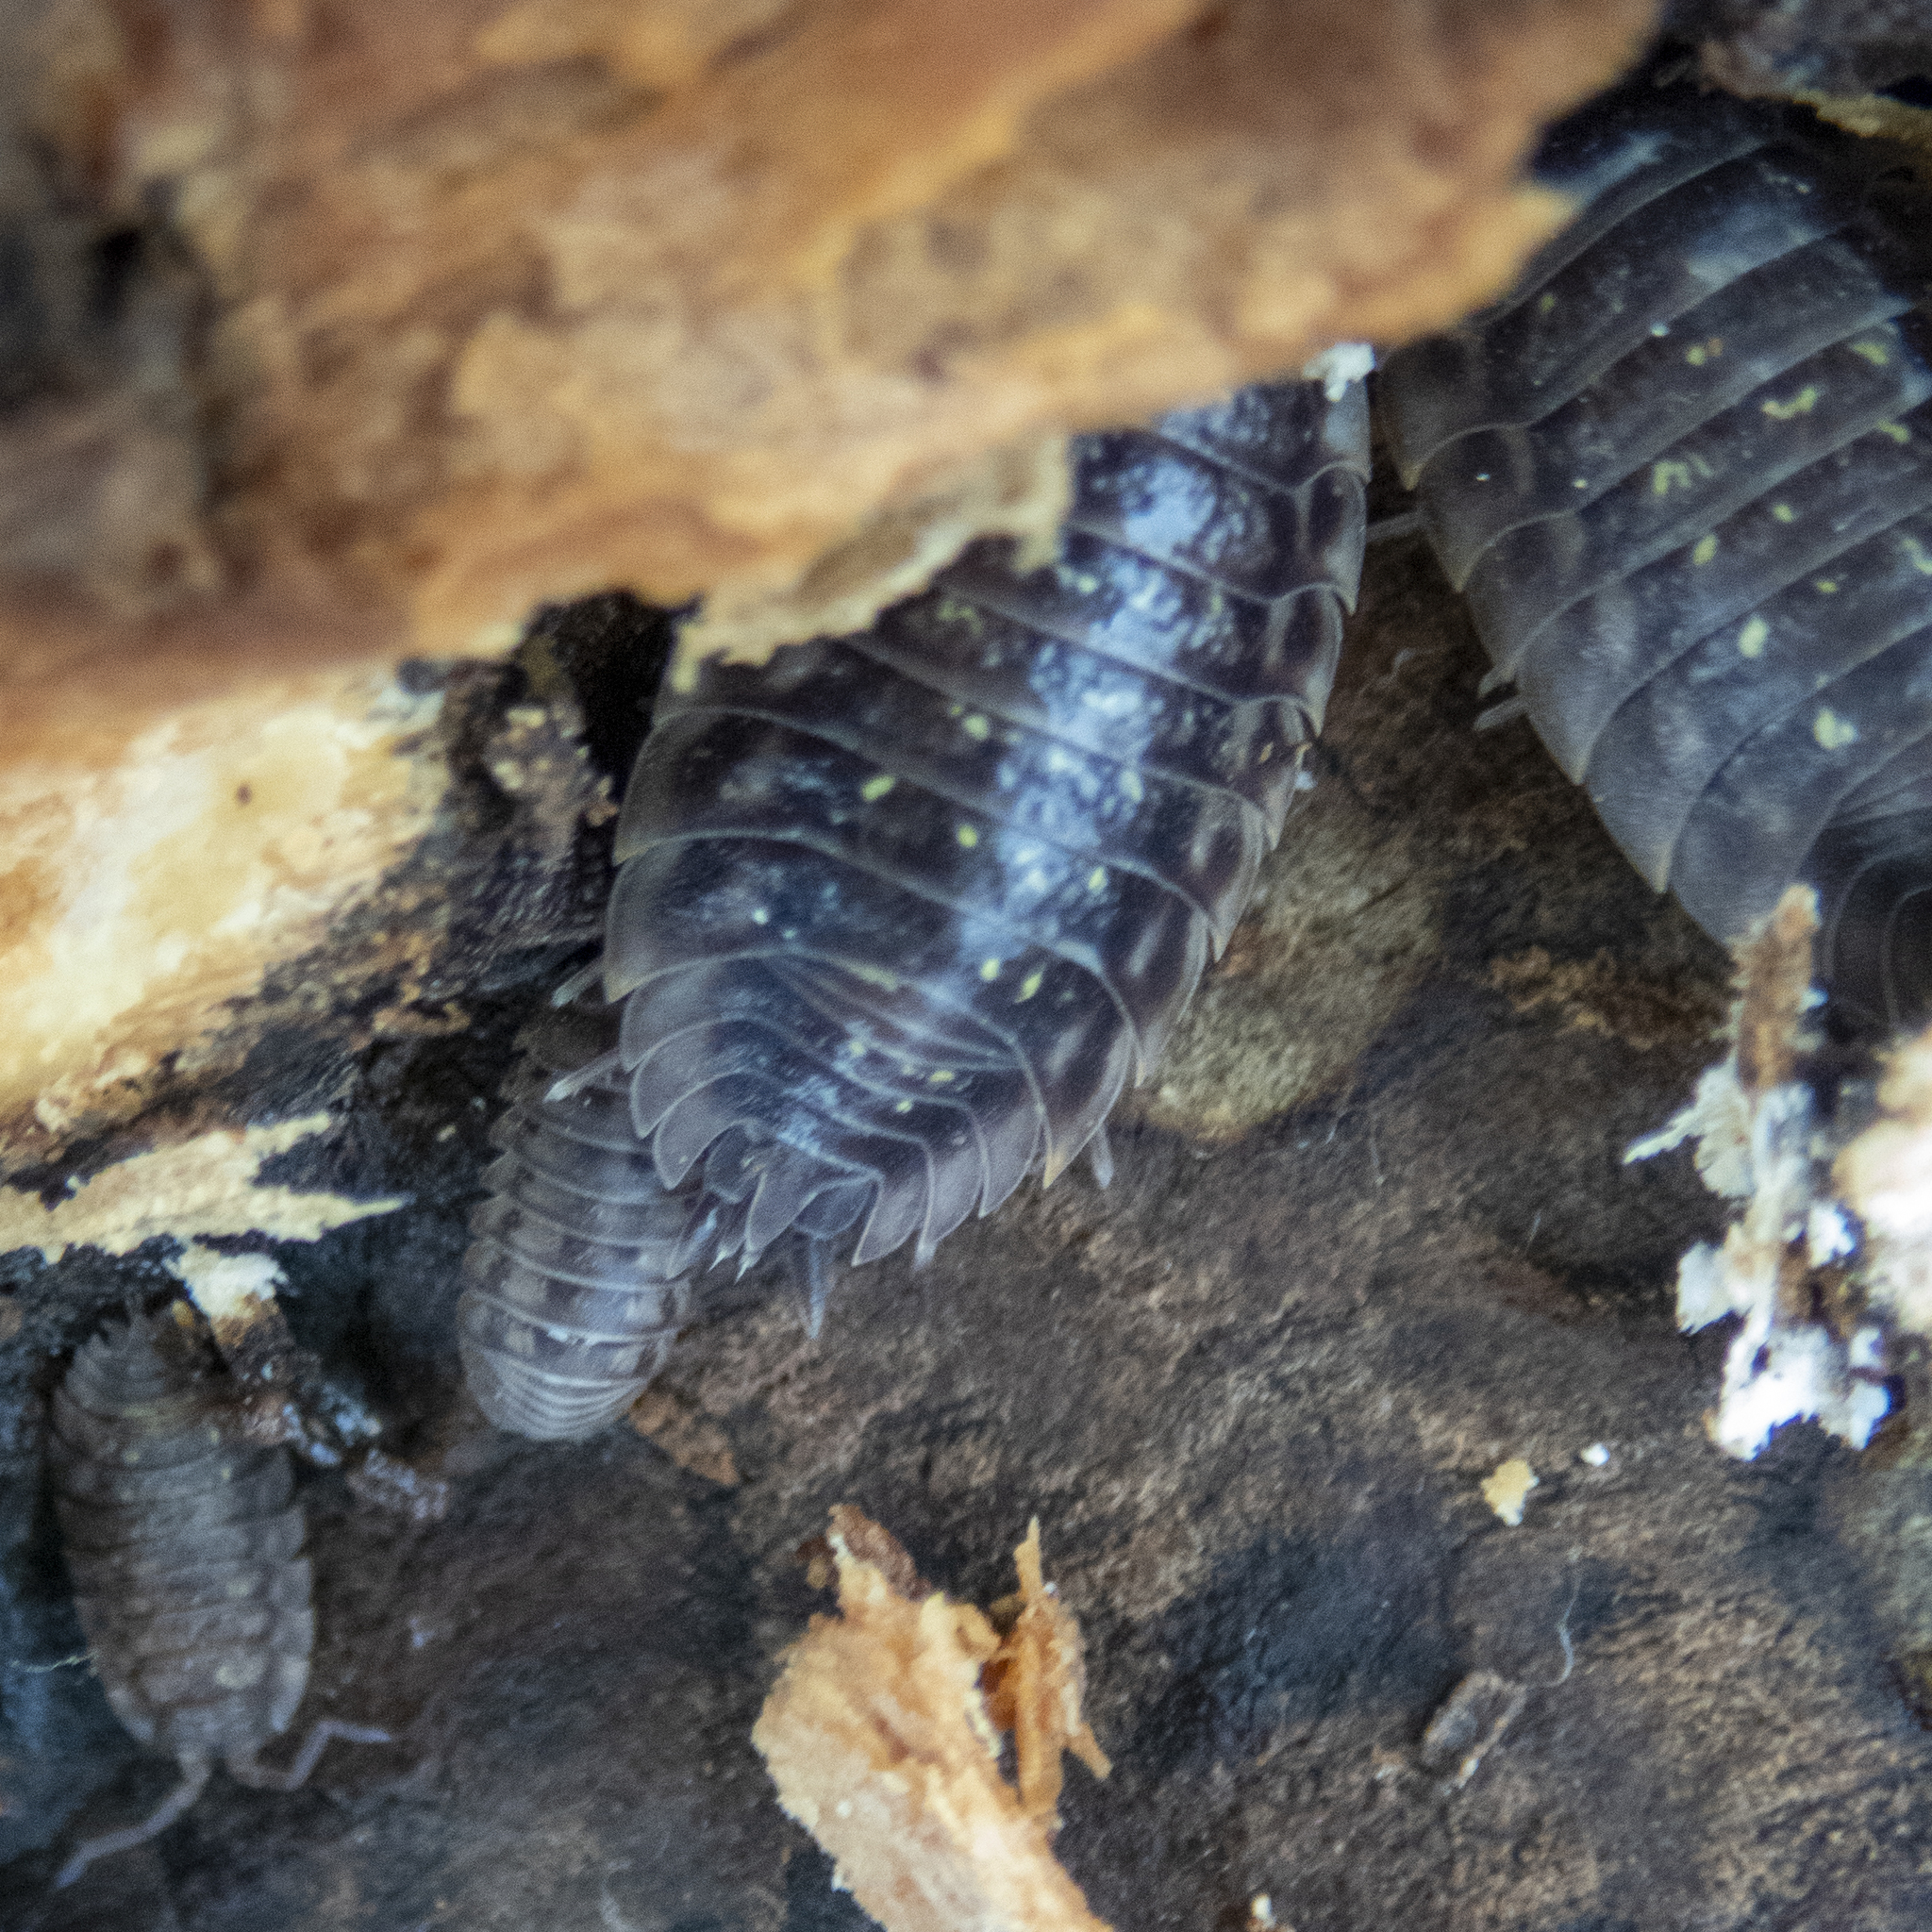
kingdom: Animalia
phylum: Arthropoda
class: Malacostraca
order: Isopoda
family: Oniscidae
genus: Oniscus
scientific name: Oniscus asellus
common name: Common shiny woodlouse
